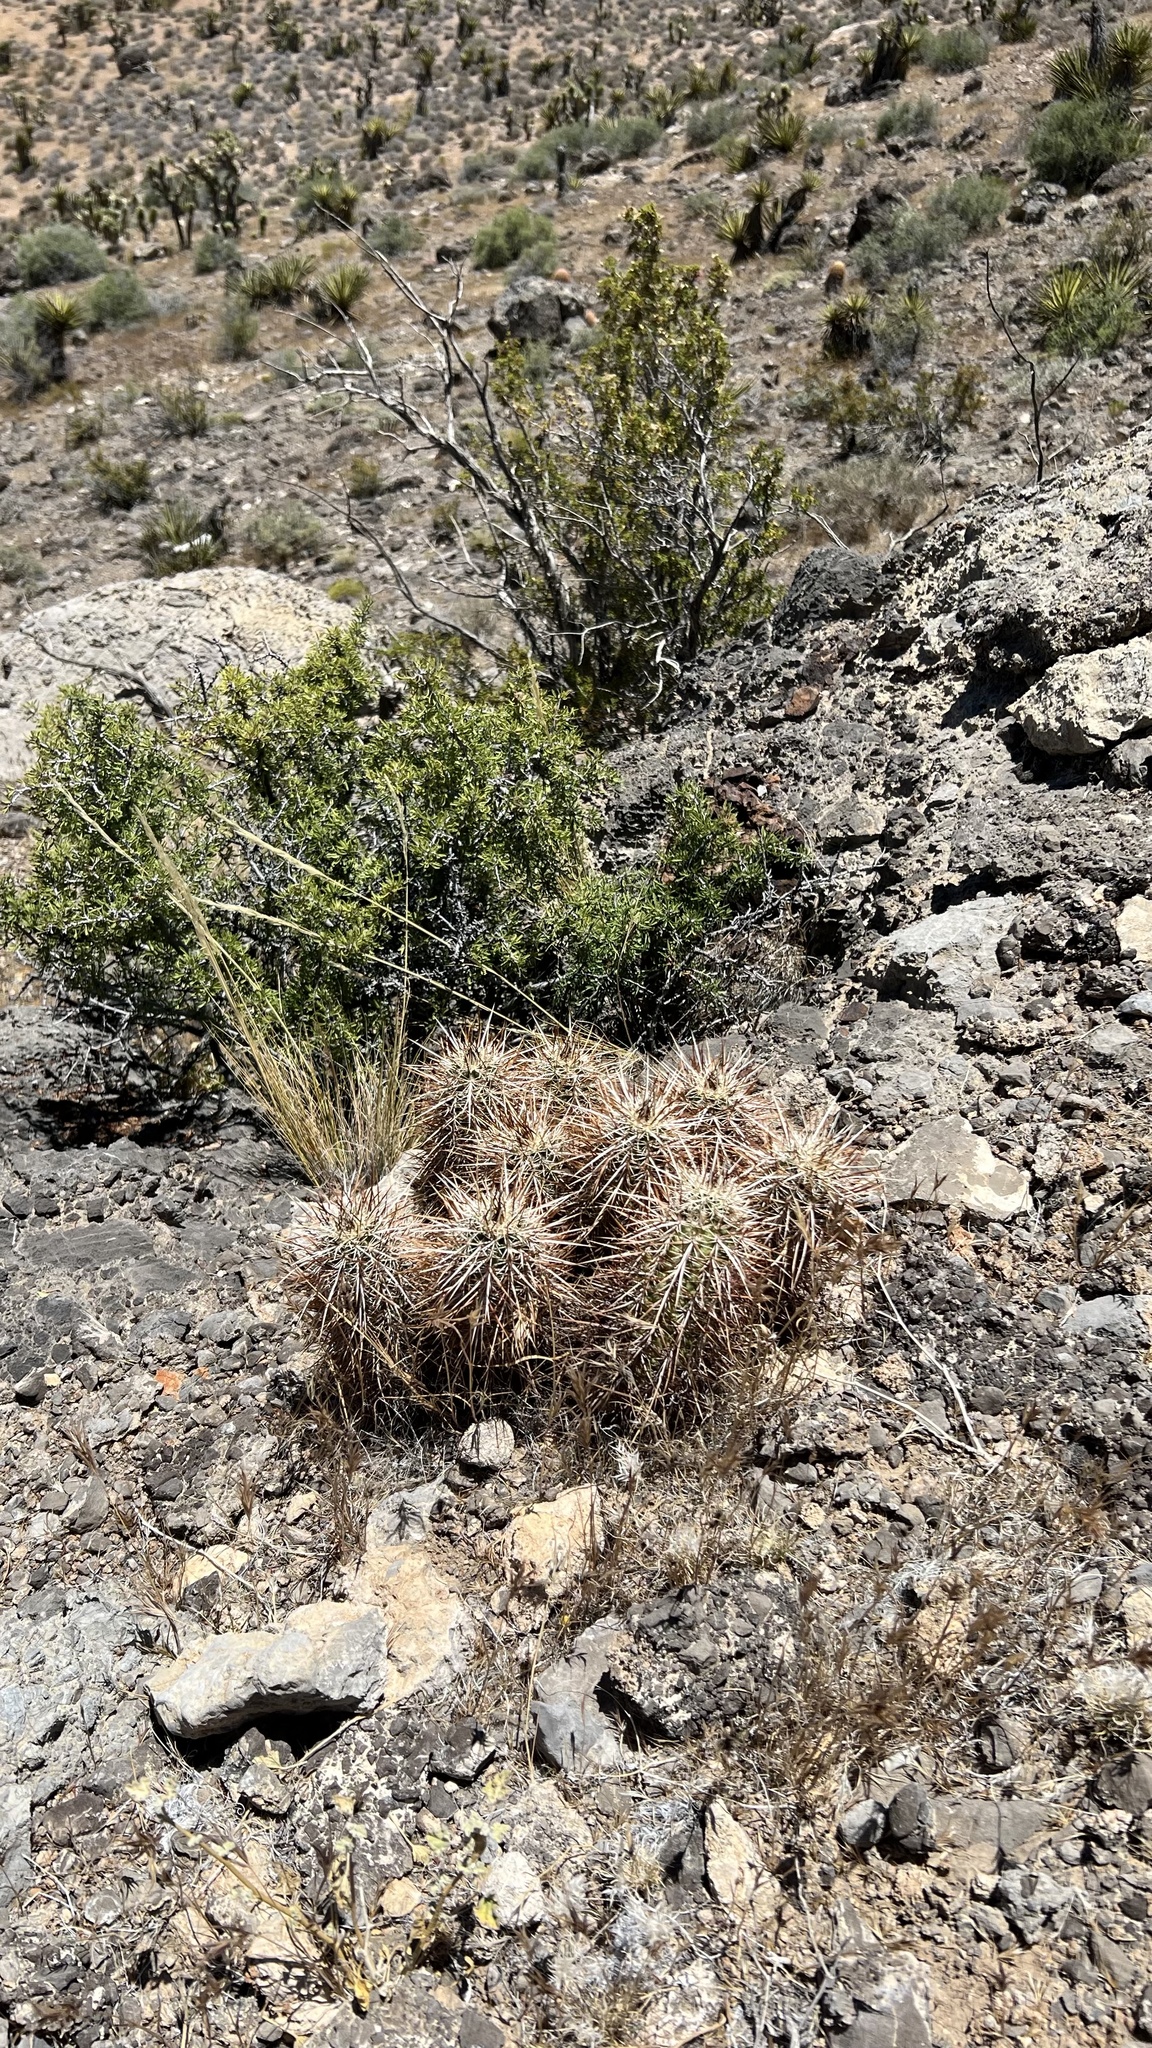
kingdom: Plantae
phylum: Tracheophyta
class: Magnoliopsida
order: Caryophyllales
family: Cactaceae
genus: Echinocereus
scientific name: Echinocereus engelmannii
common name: Engelmann's hedgehog cactus
